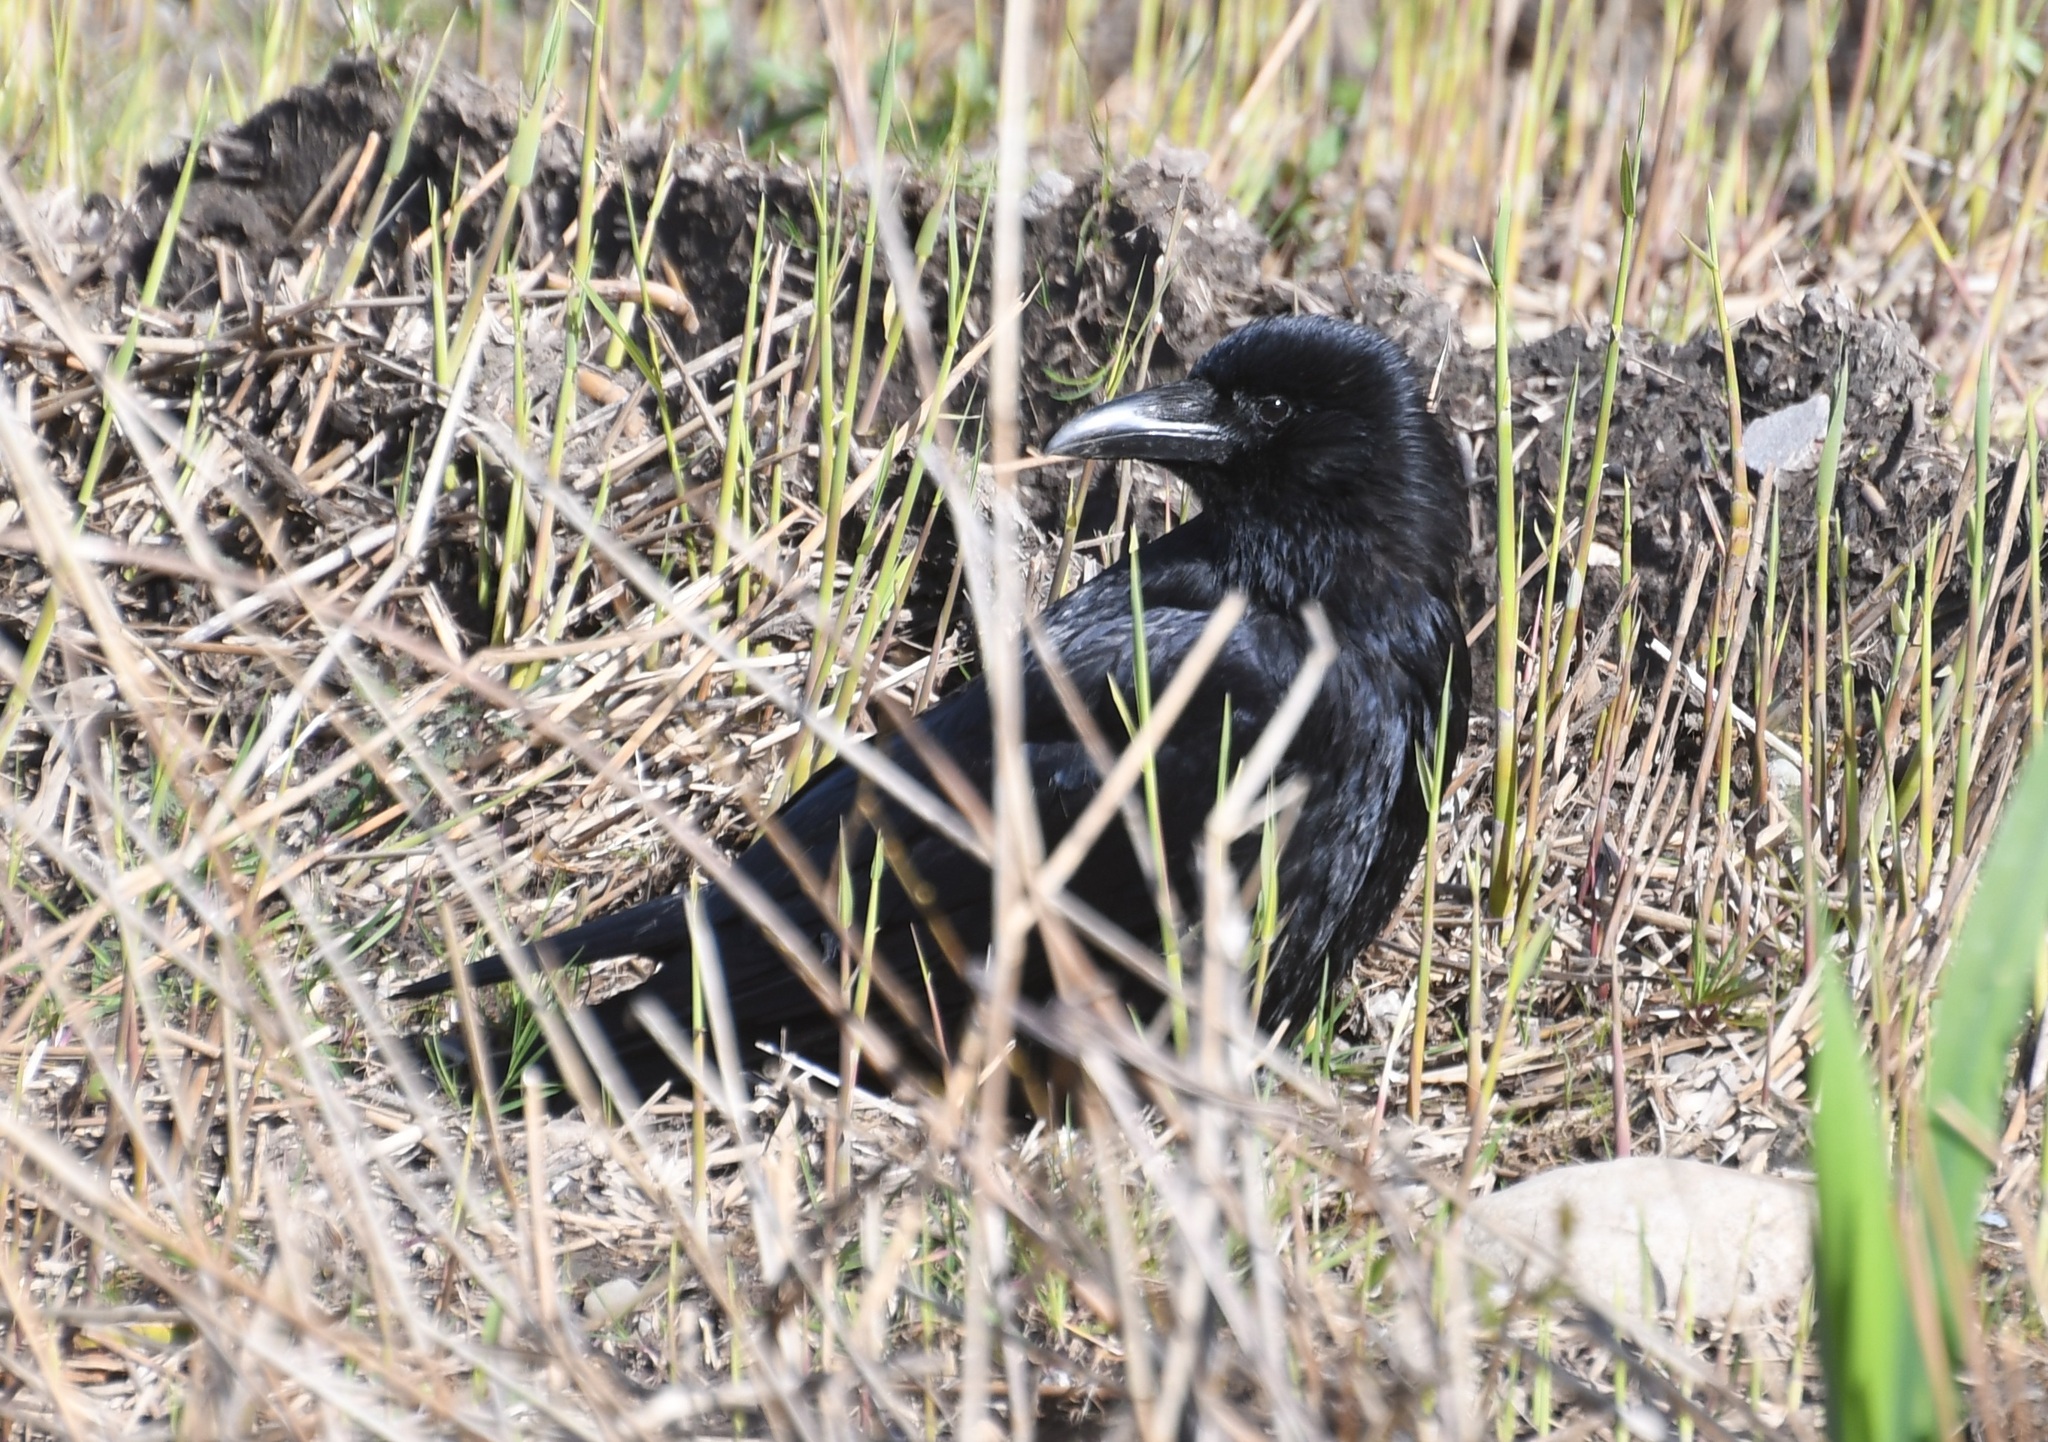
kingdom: Animalia
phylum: Chordata
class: Aves
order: Passeriformes
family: Corvidae
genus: Corvus
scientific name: Corvus corone
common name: Carrion crow
